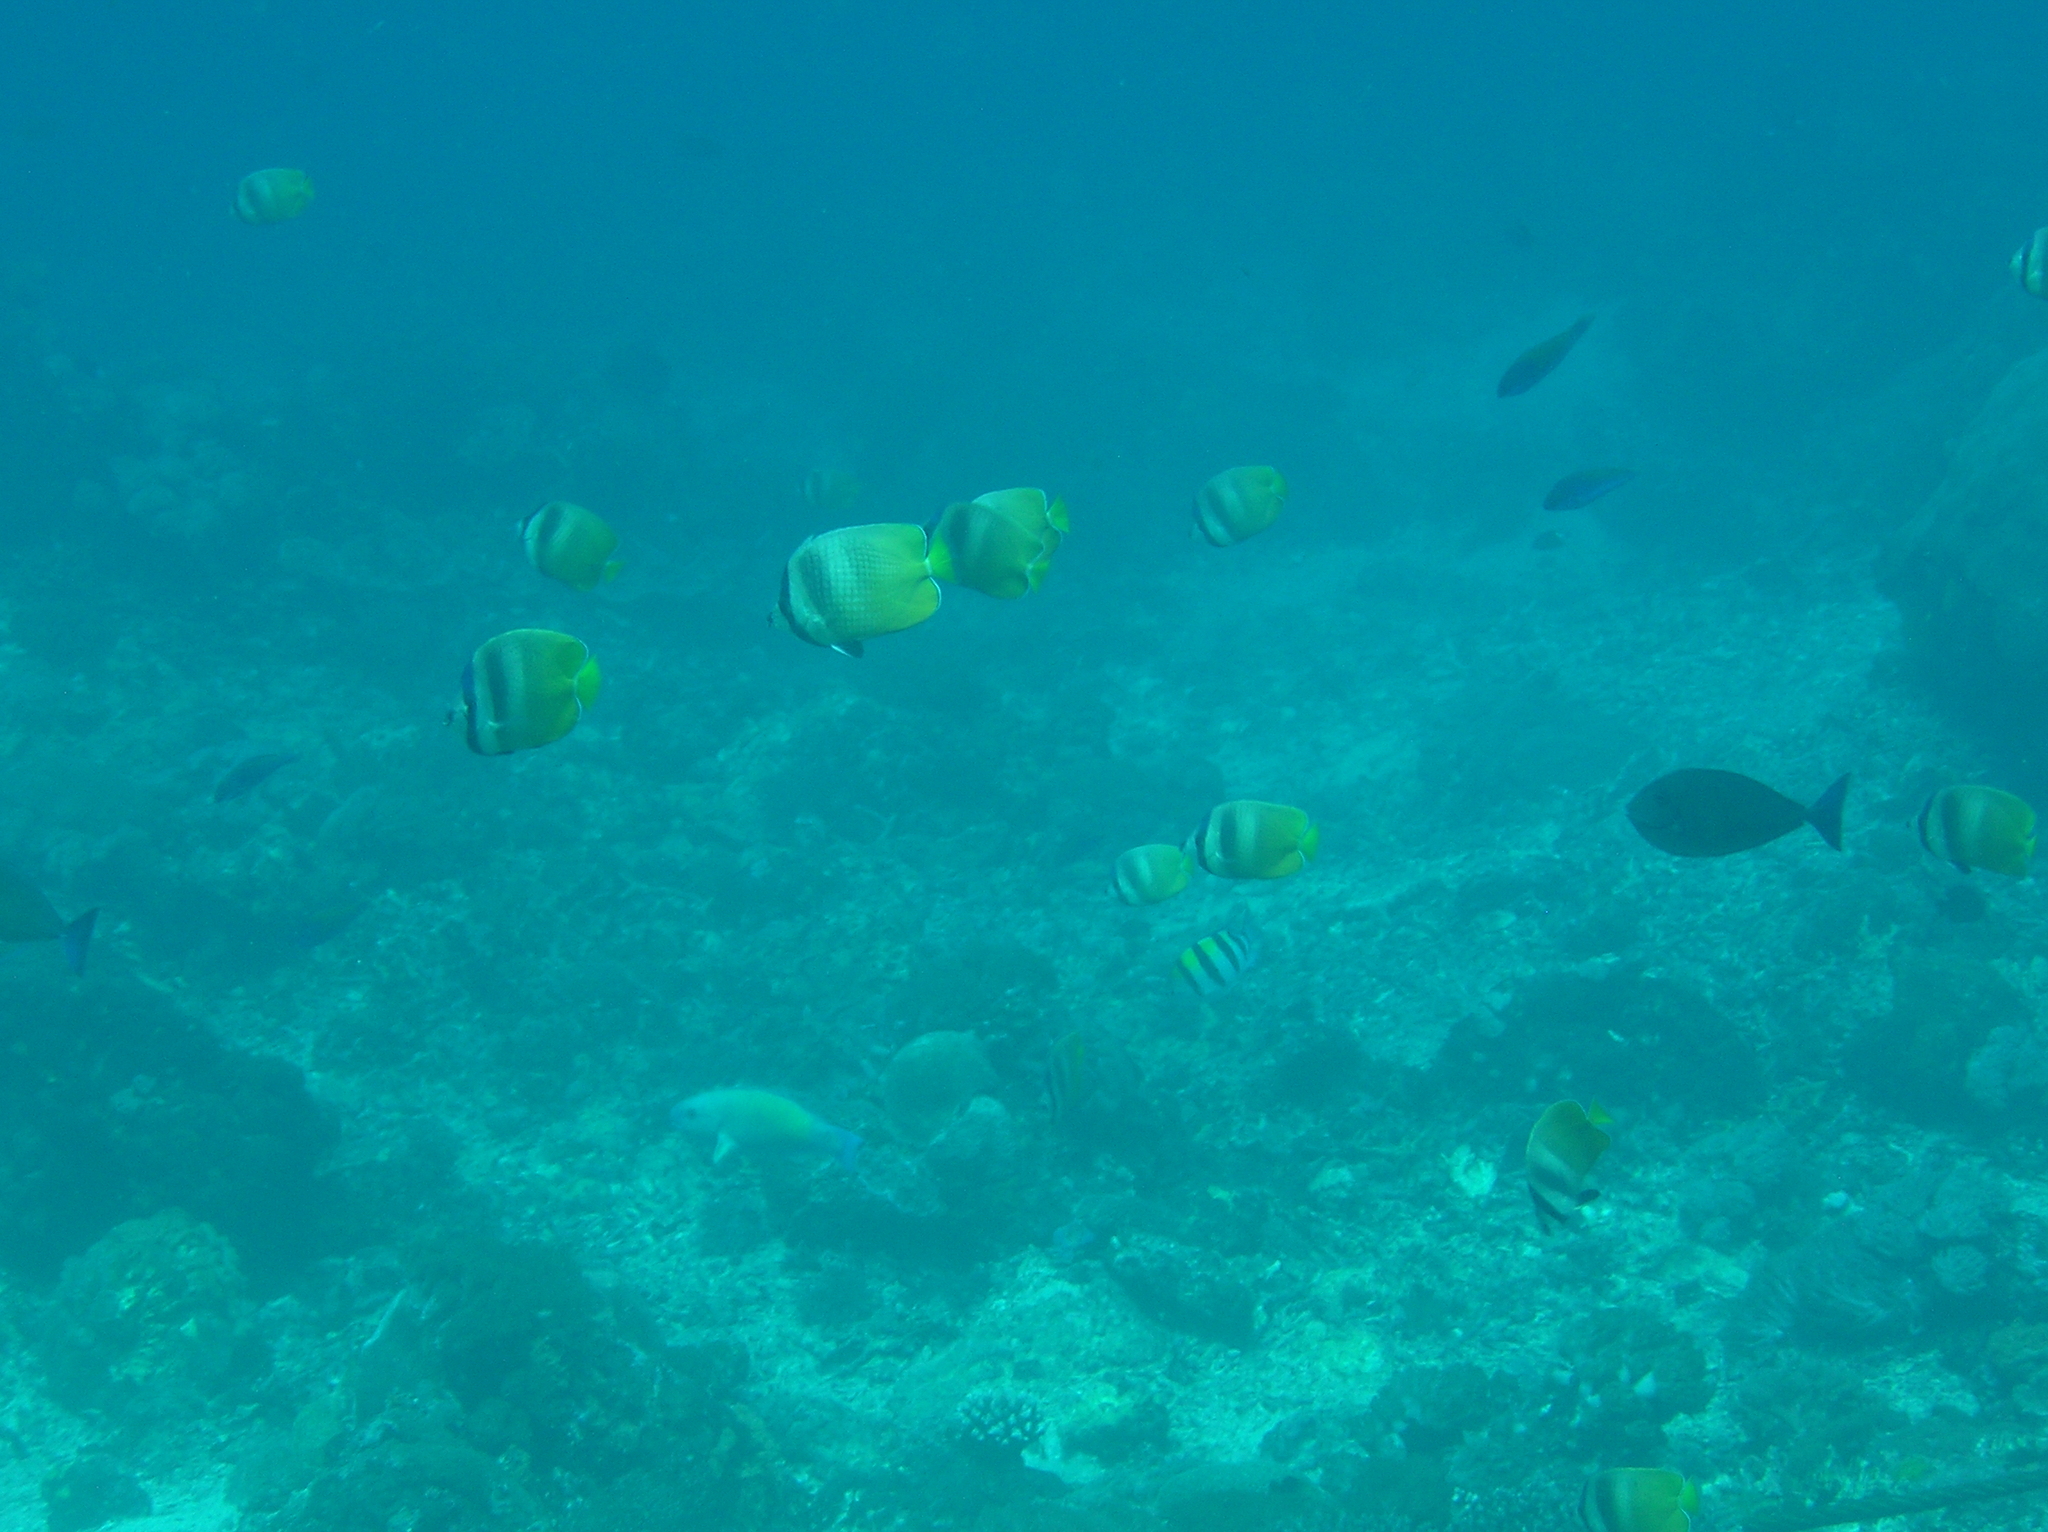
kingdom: Animalia
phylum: Chordata
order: Perciformes
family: Chaetodontidae
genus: Chaetodon
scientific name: Chaetodon kleinii
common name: Klein's butterflyfish
